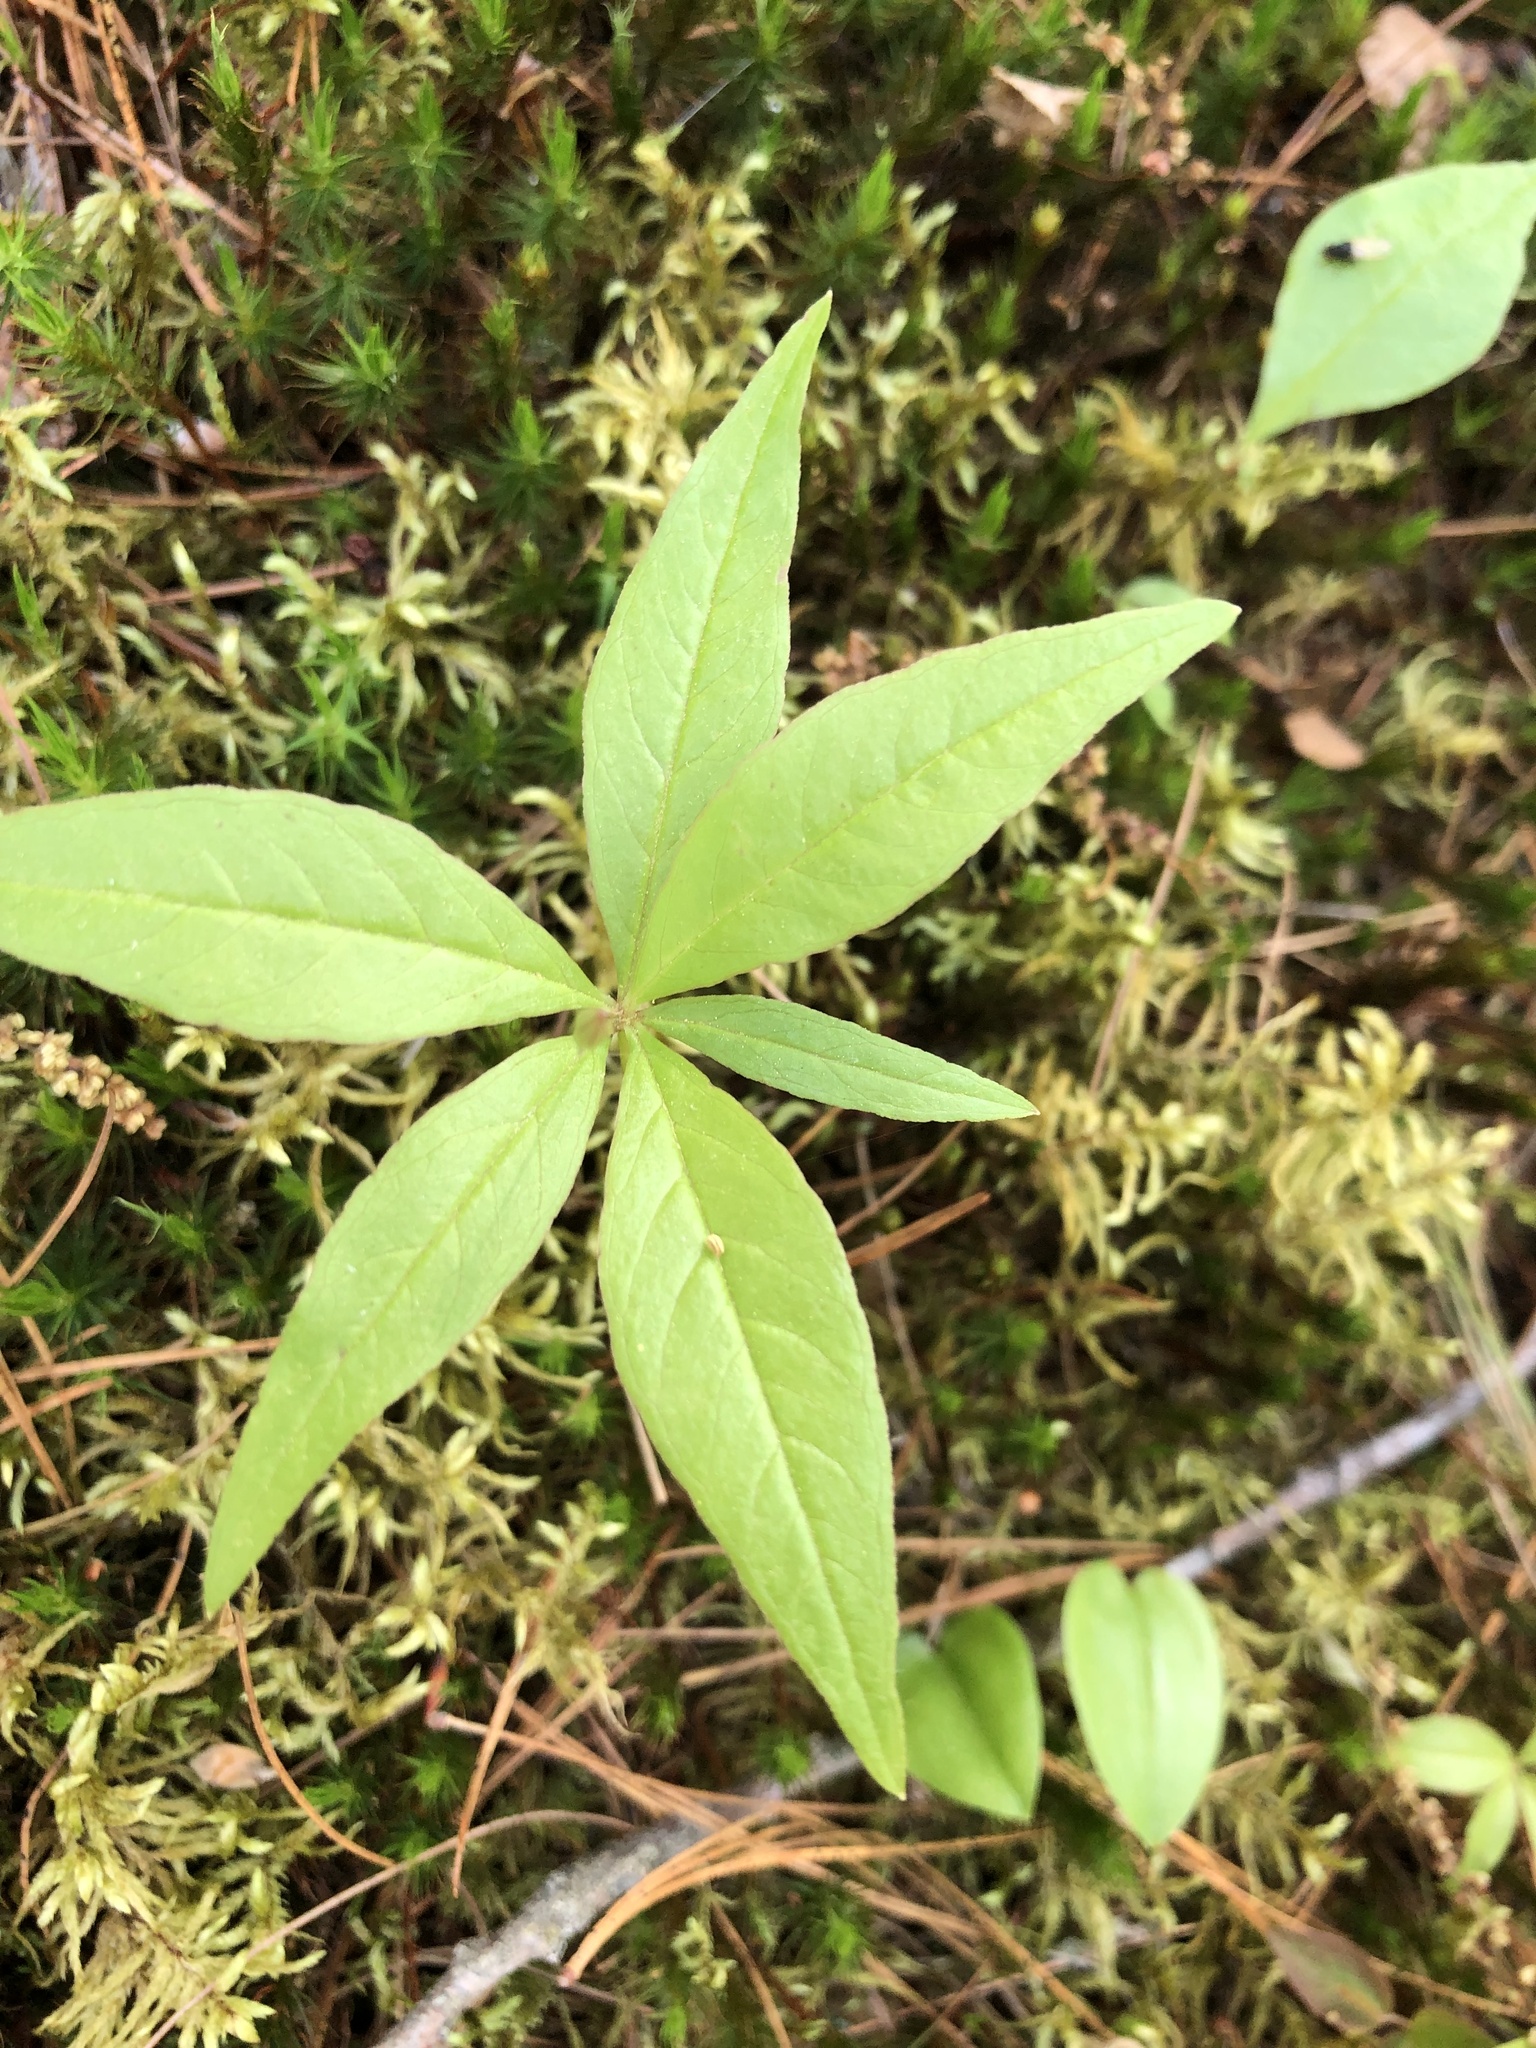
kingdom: Plantae
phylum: Tracheophyta
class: Magnoliopsida
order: Ericales
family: Primulaceae
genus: Lysimachia
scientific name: Lysimachia borealis
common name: American starflower
